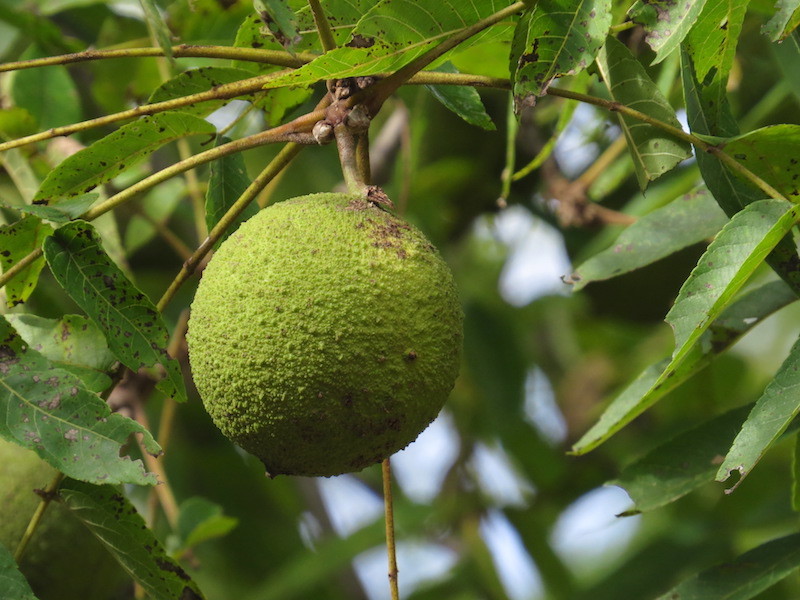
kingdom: Plantae
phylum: Tracheophyta
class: Magnoliopsida
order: Fagales
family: Juglandaceae
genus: Juglans
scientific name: Juglans nigra
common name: Black walnut
